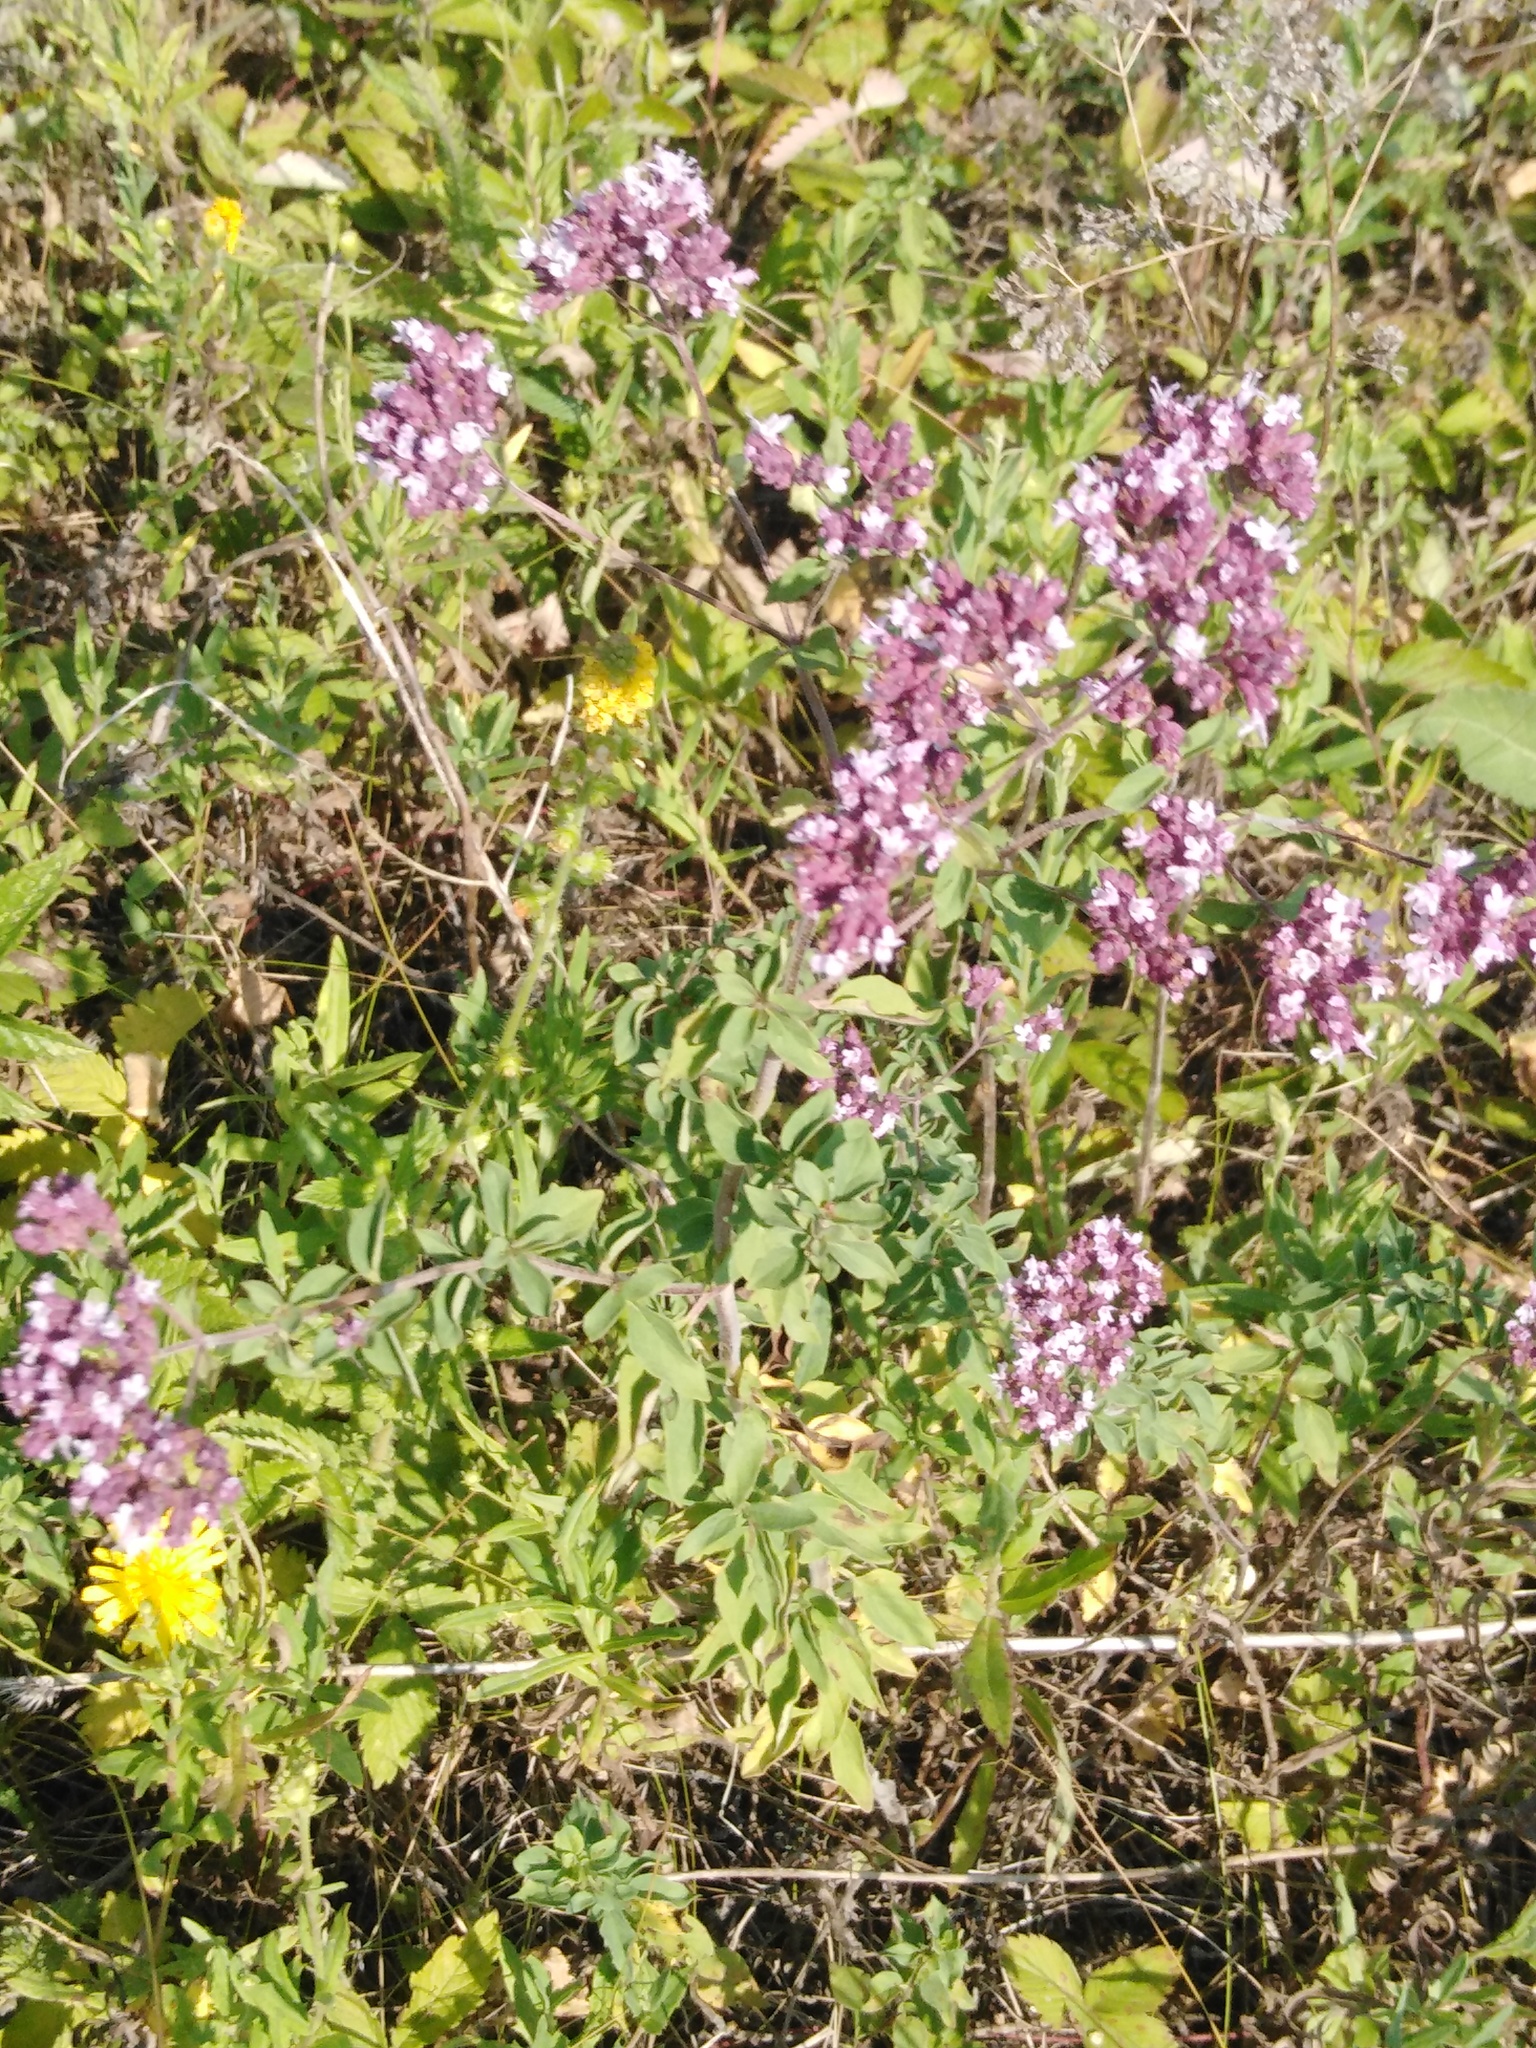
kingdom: Plantae
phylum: Tracheophyta
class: Magnoliopsida
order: Lamiales
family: Lamiaceae
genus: Origanum
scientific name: Origanum vulgare
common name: Wild marjoram
